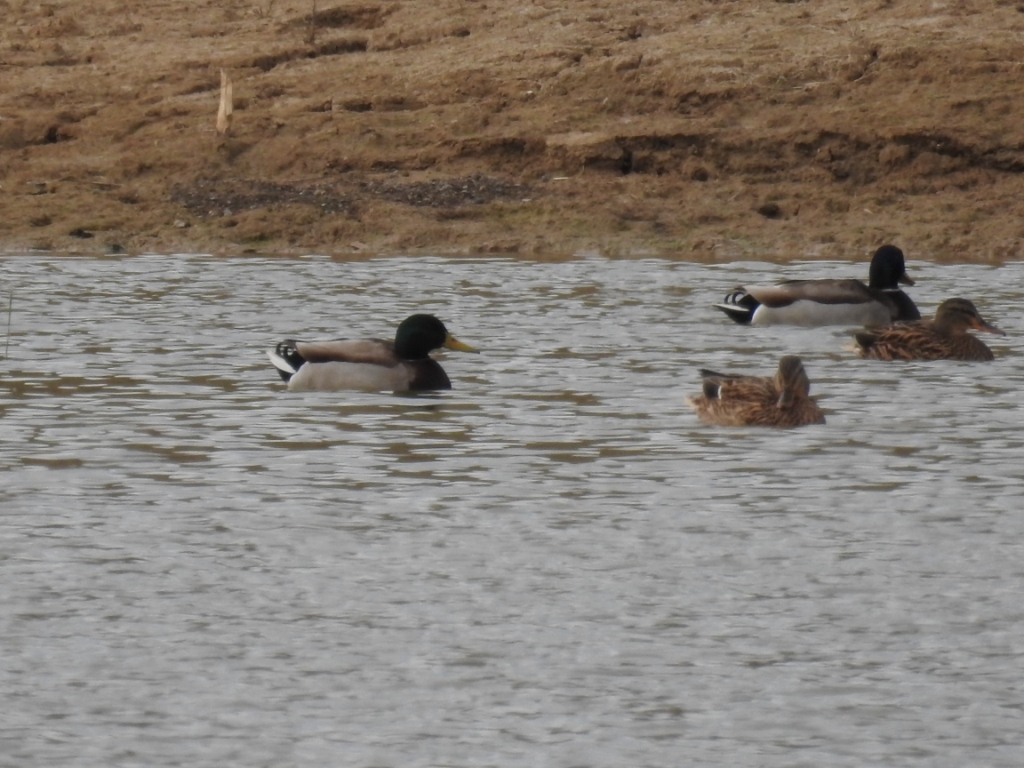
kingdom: Animalia
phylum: Chordata
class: Aves
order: Anseriformes
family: Anatidae
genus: Anas
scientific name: Anas platyrhynchos
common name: Mallard
